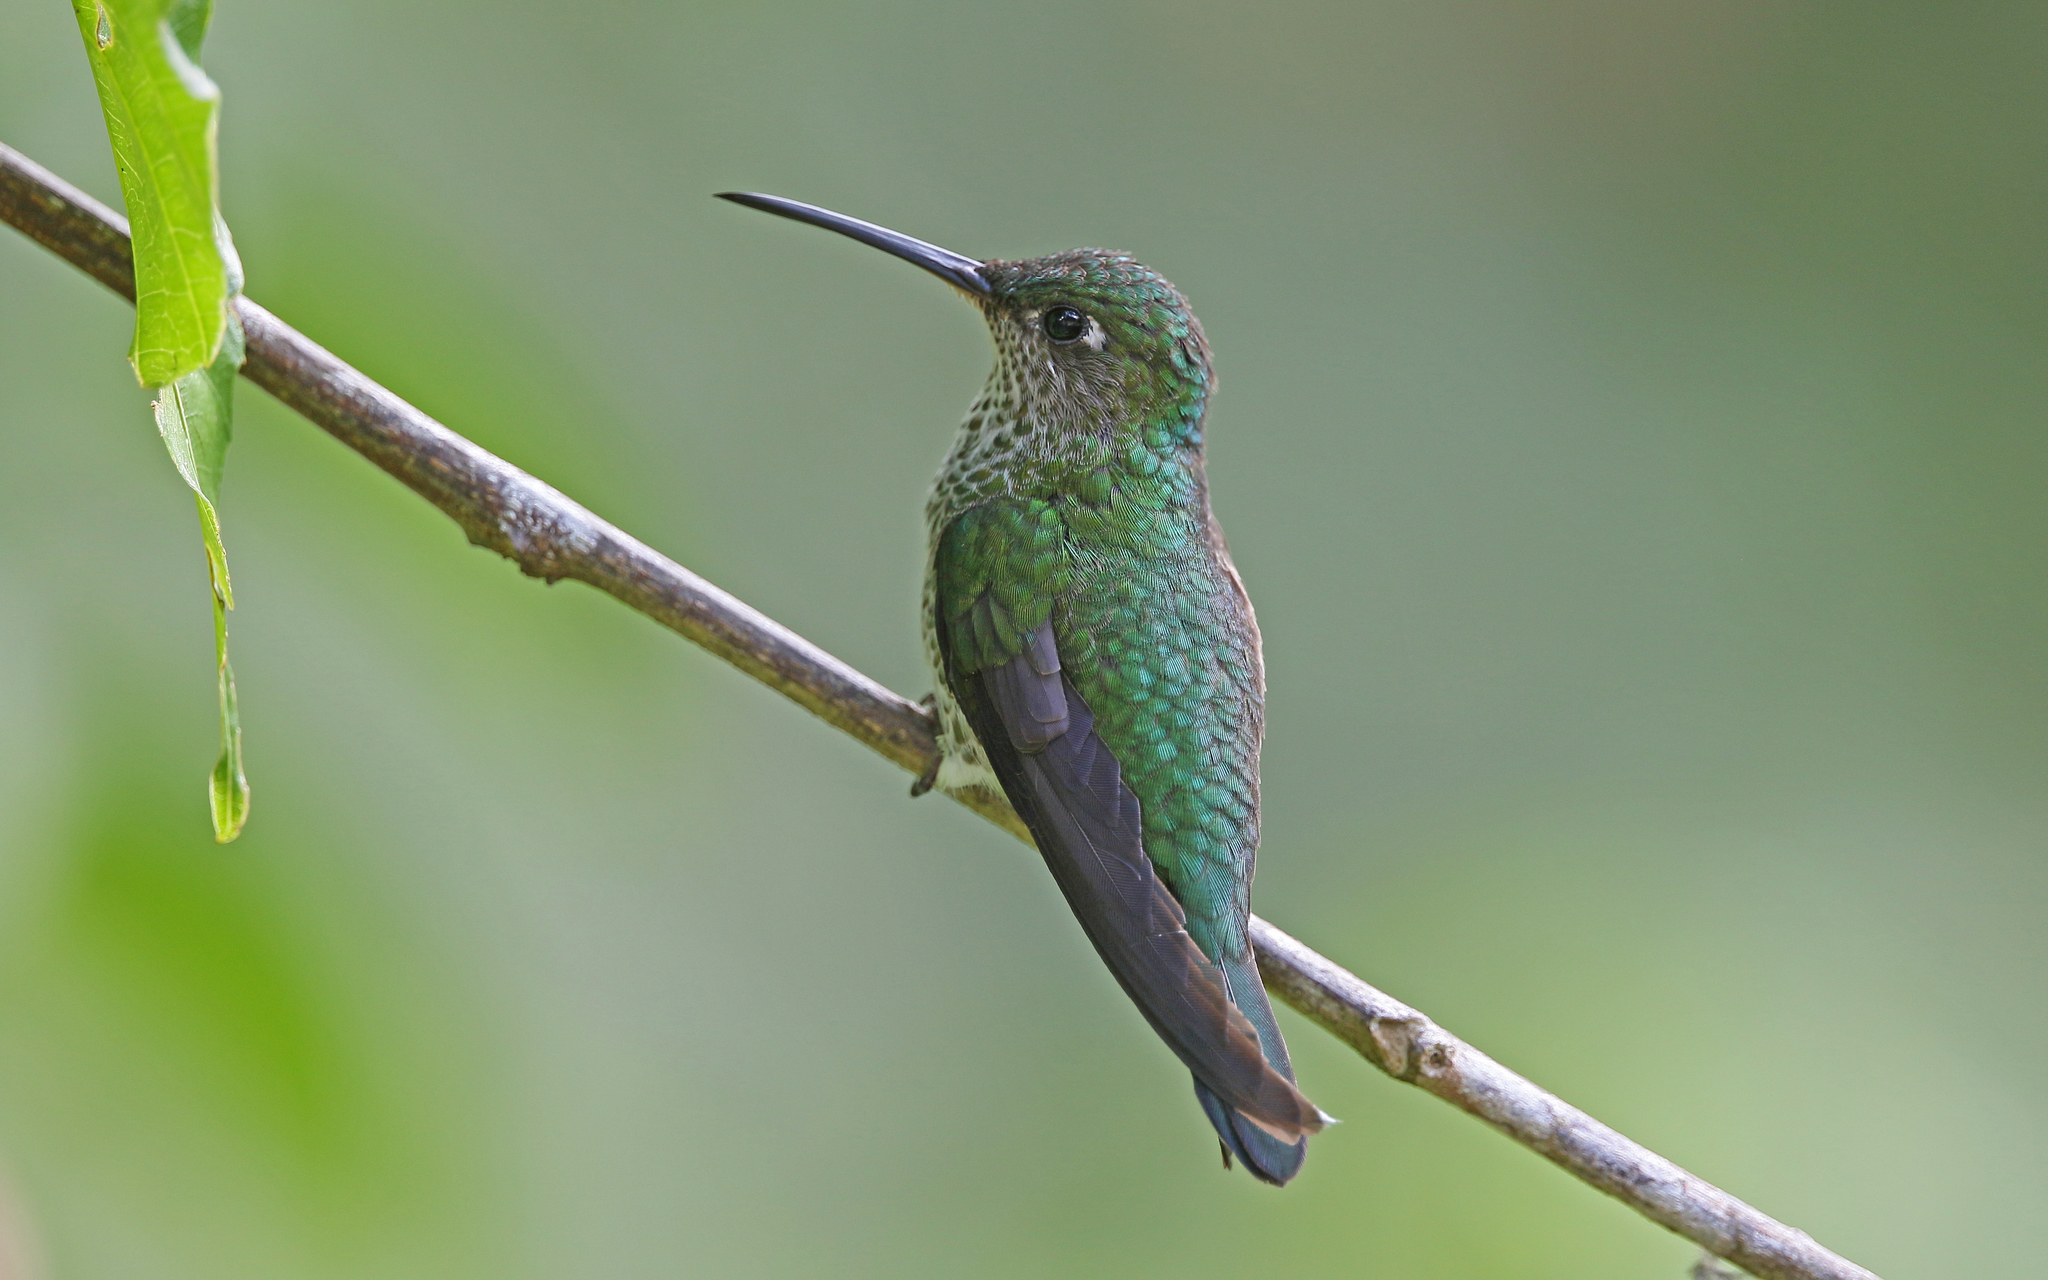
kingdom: Animalia
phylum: Chordata
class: Aves
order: Apodiformes
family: Trochilidae
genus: Taphrospilus
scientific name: Taphrospilus hypostictus
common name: Many-spotted hummingbird
